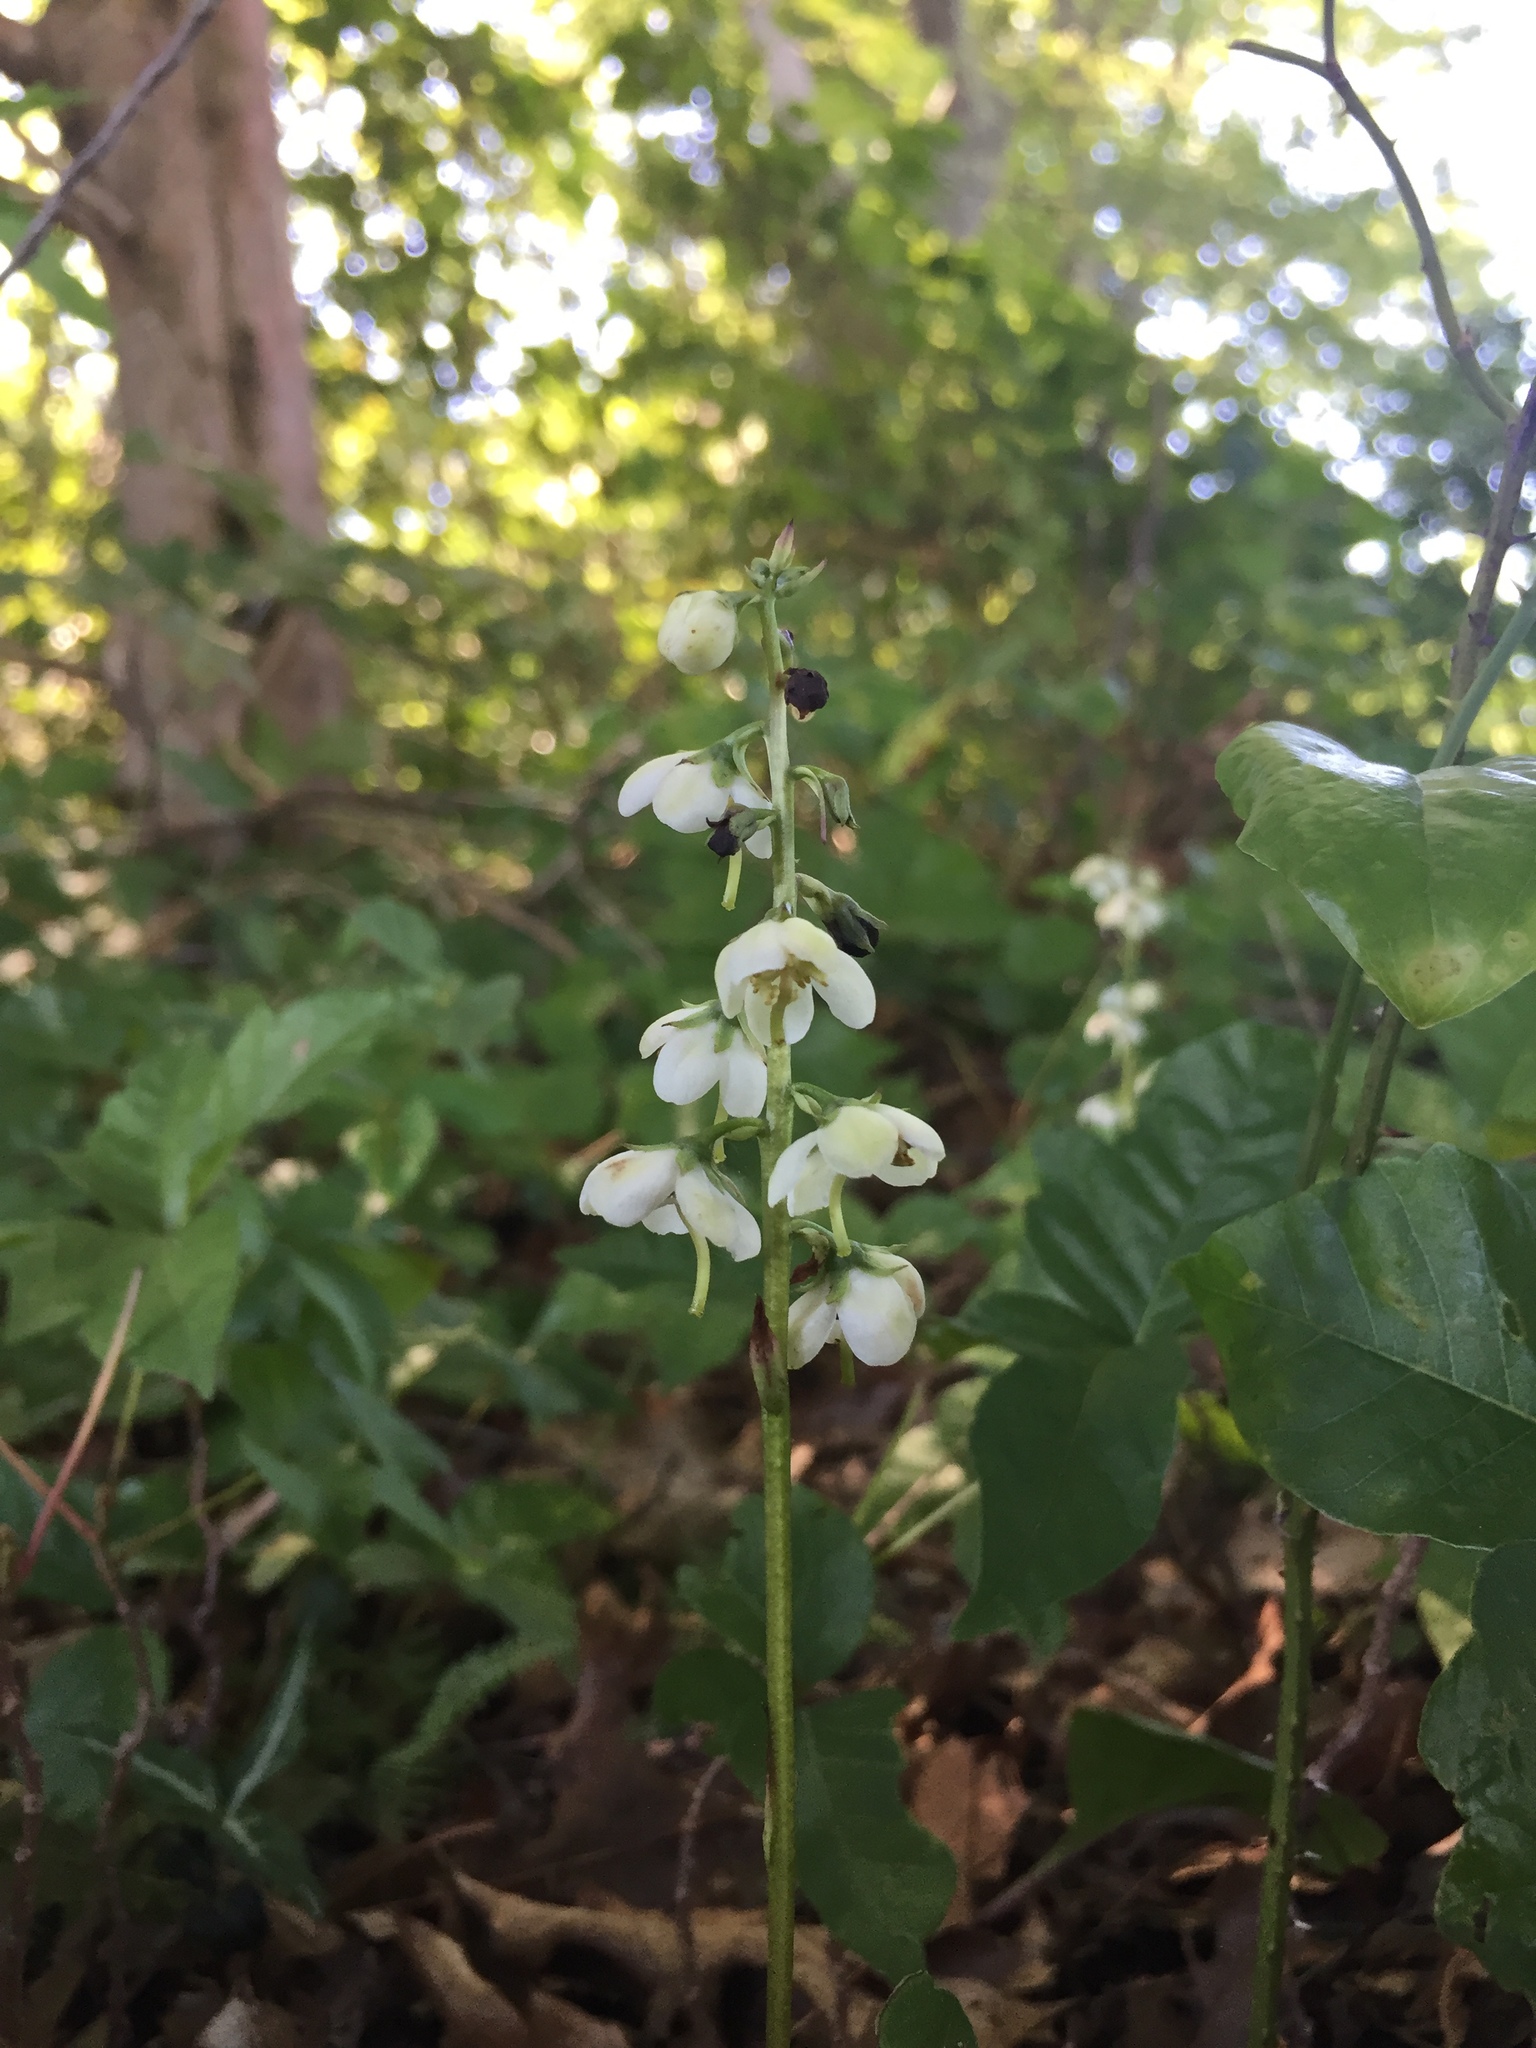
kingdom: Plantae
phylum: Tracheophyta
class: Magnoliopsida
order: Ericales
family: Ericaceae
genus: Pyrola
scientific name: Pyrola americana
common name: American wintergreen
